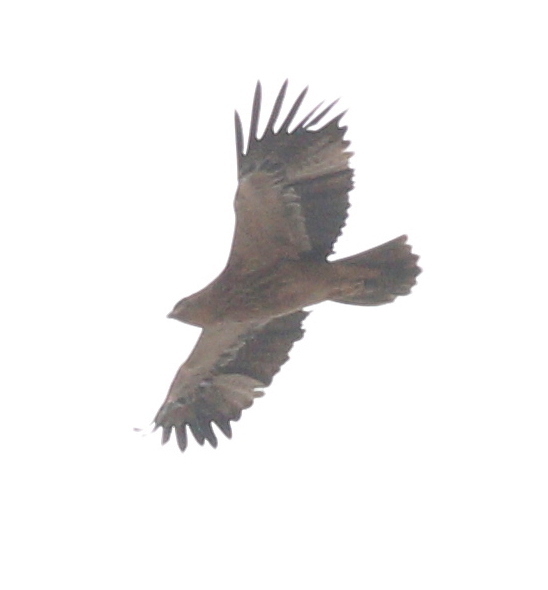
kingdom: Animalia
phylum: Chordata
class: Aves
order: Accipitriformes
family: Accipitridae
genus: Hieraaetus
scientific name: Hieraaetus pennatus
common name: Booted eagle
